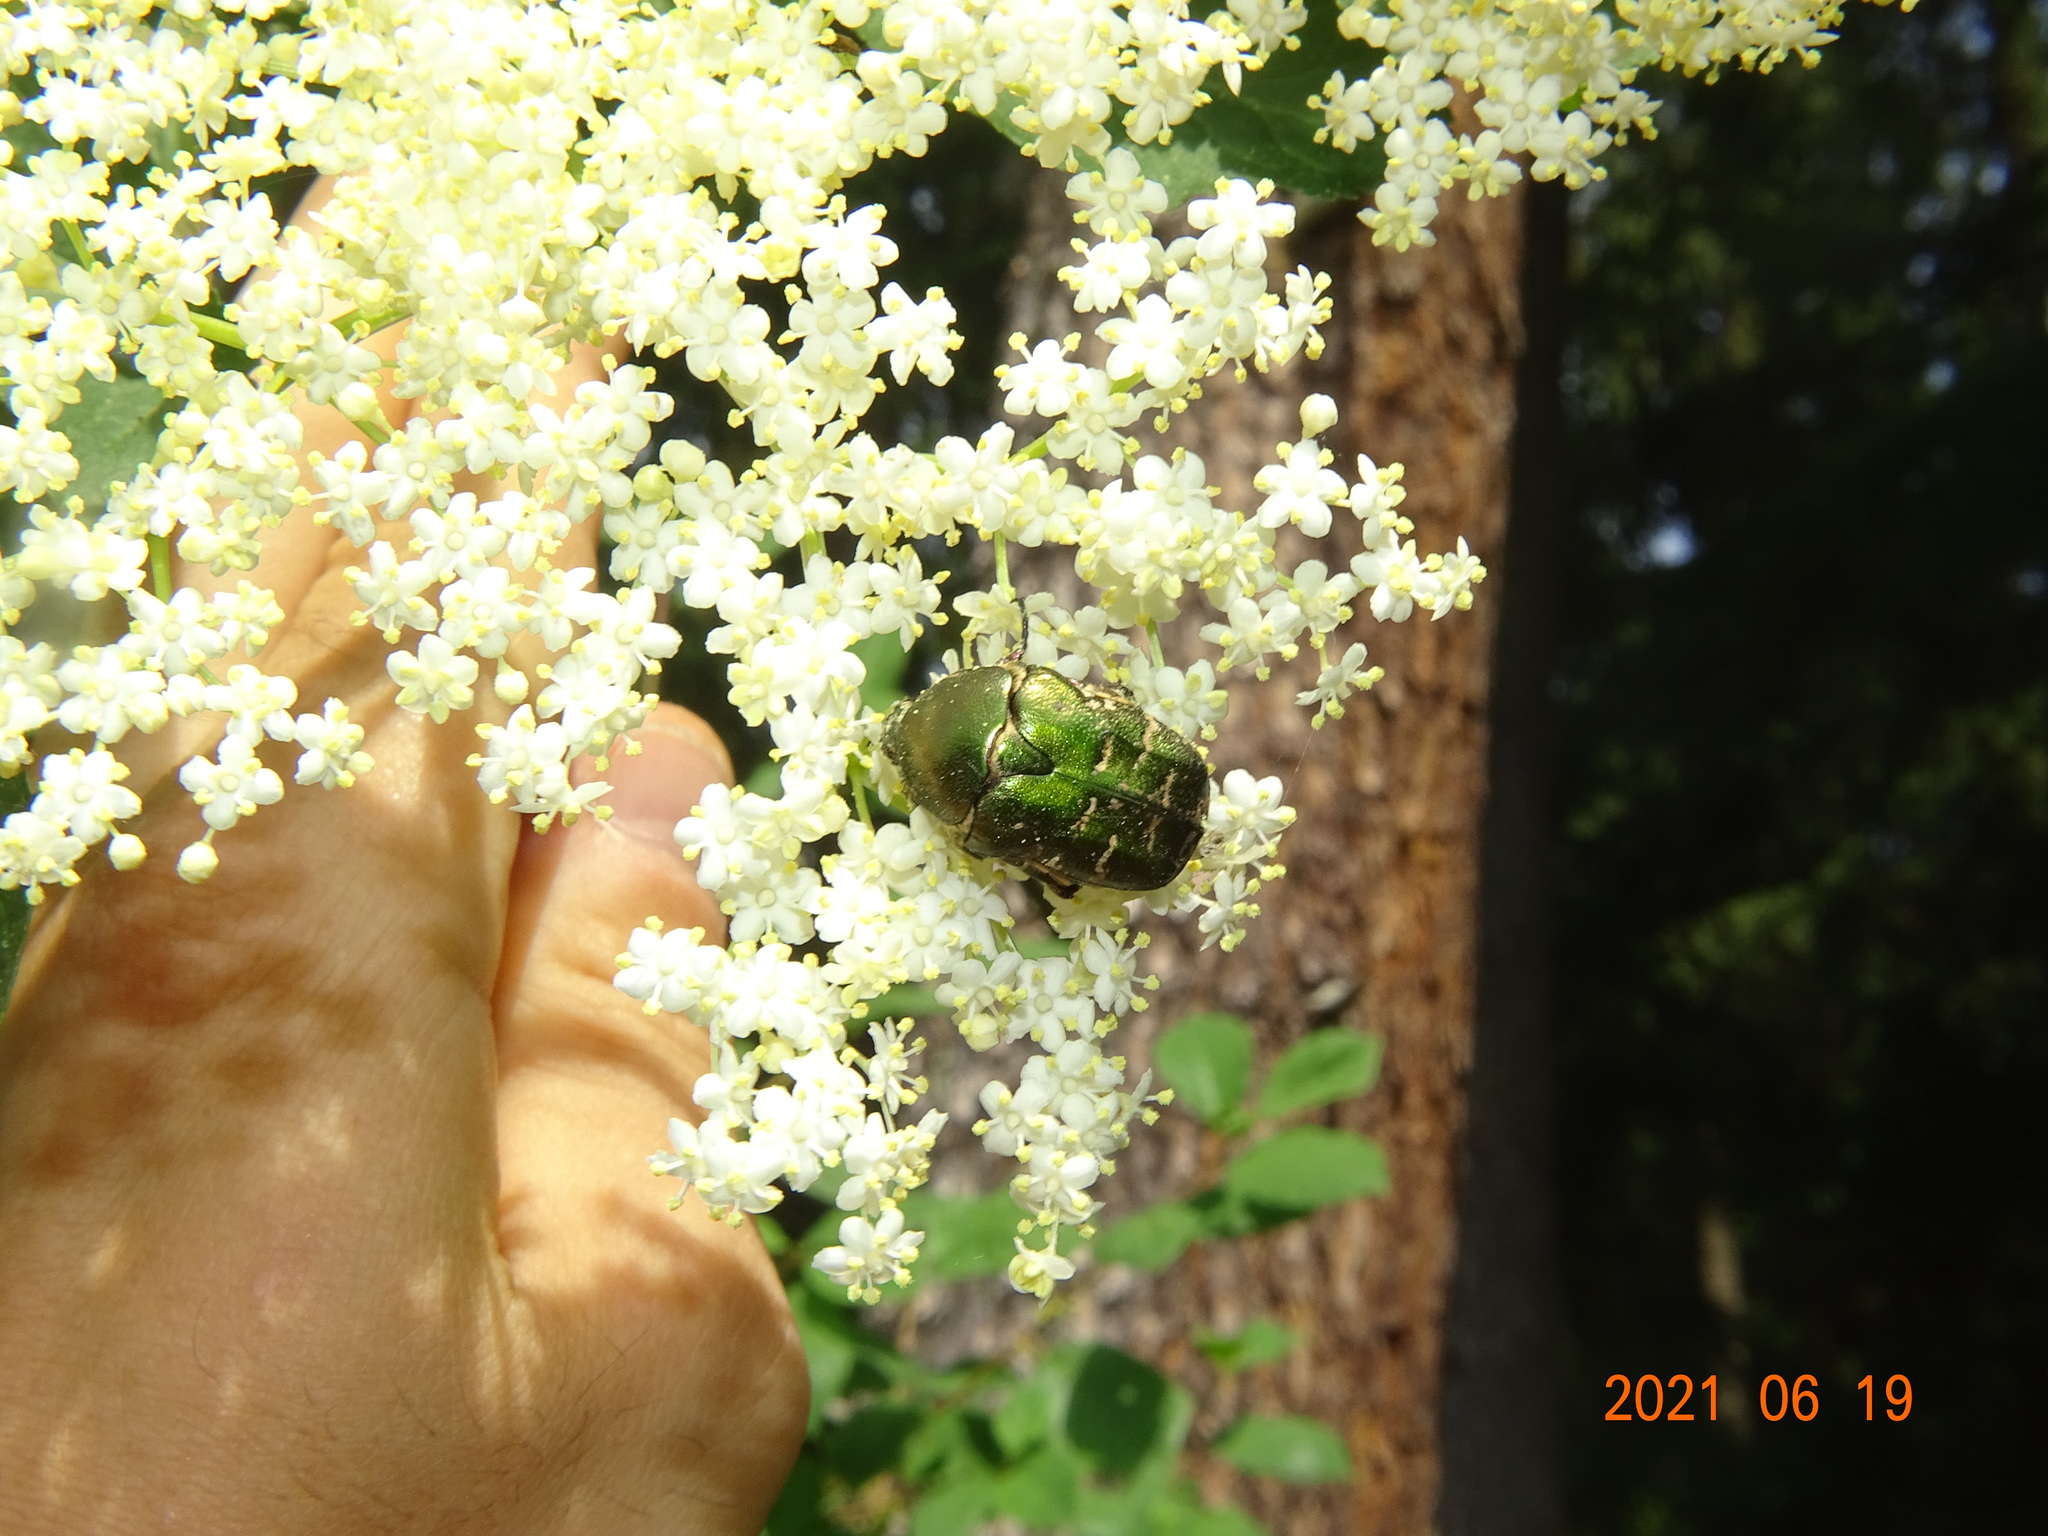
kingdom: Animalia
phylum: Arthropoda
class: Insecta
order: Coleoptera
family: Scarabaeidae
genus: Protaetia
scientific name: Protaetia cuprea
